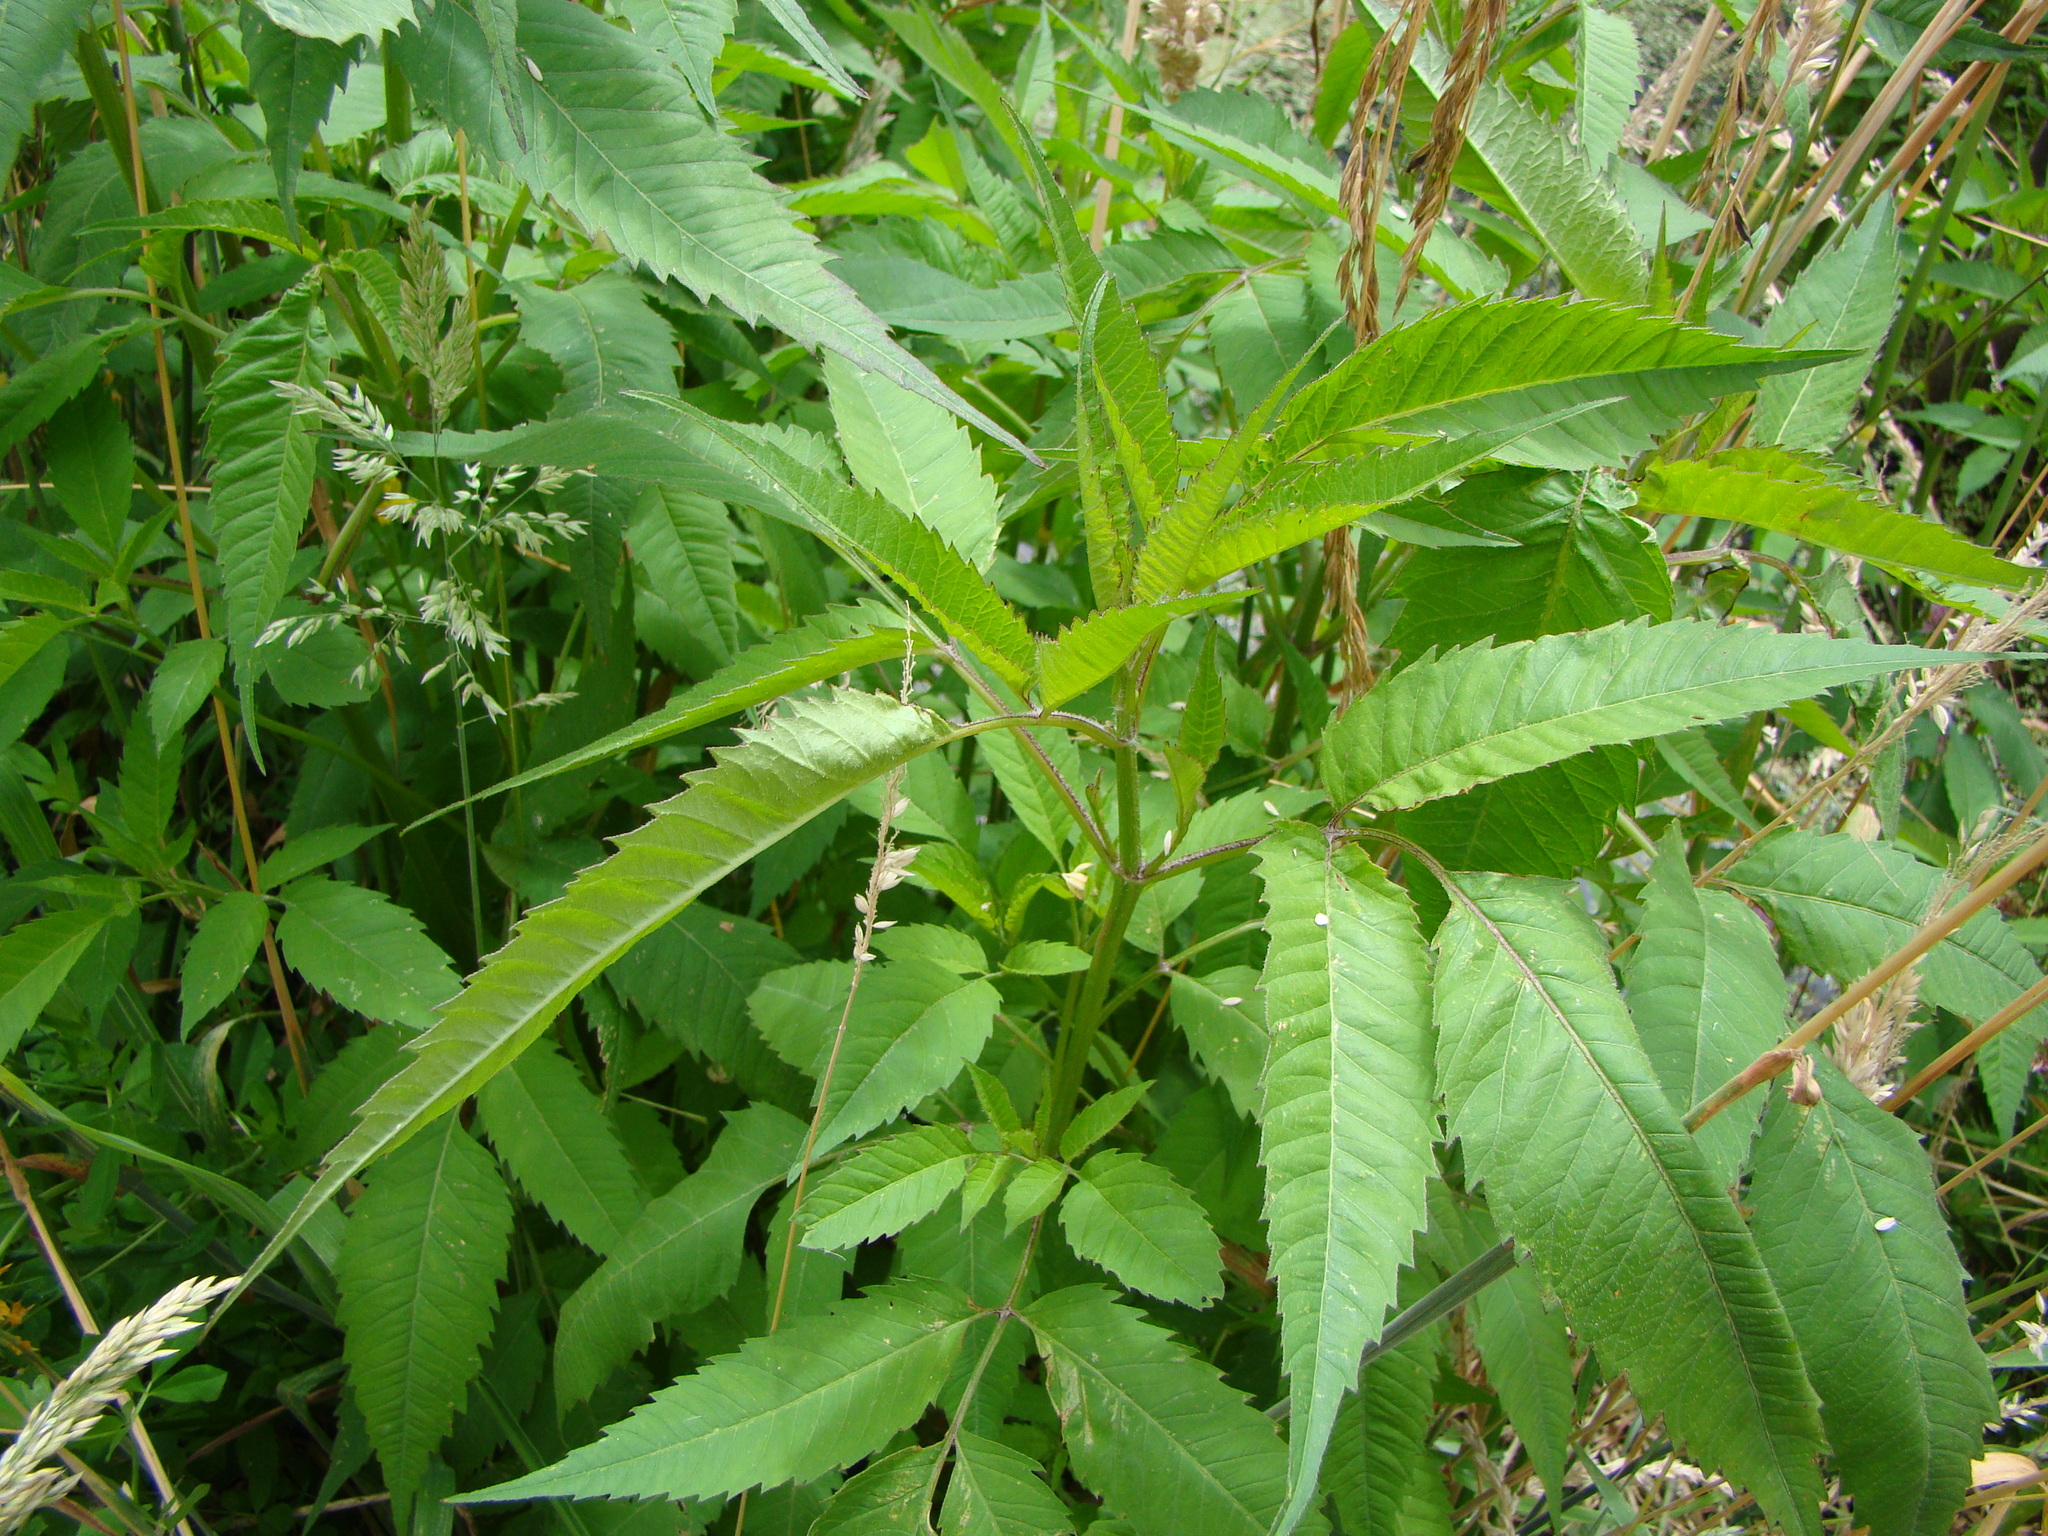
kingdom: Plantae
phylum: Tracheophyta
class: Magnoliopsida
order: Asterales
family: Asteraceae
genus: Bidens
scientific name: Bidens frondosa
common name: Beggarticks
